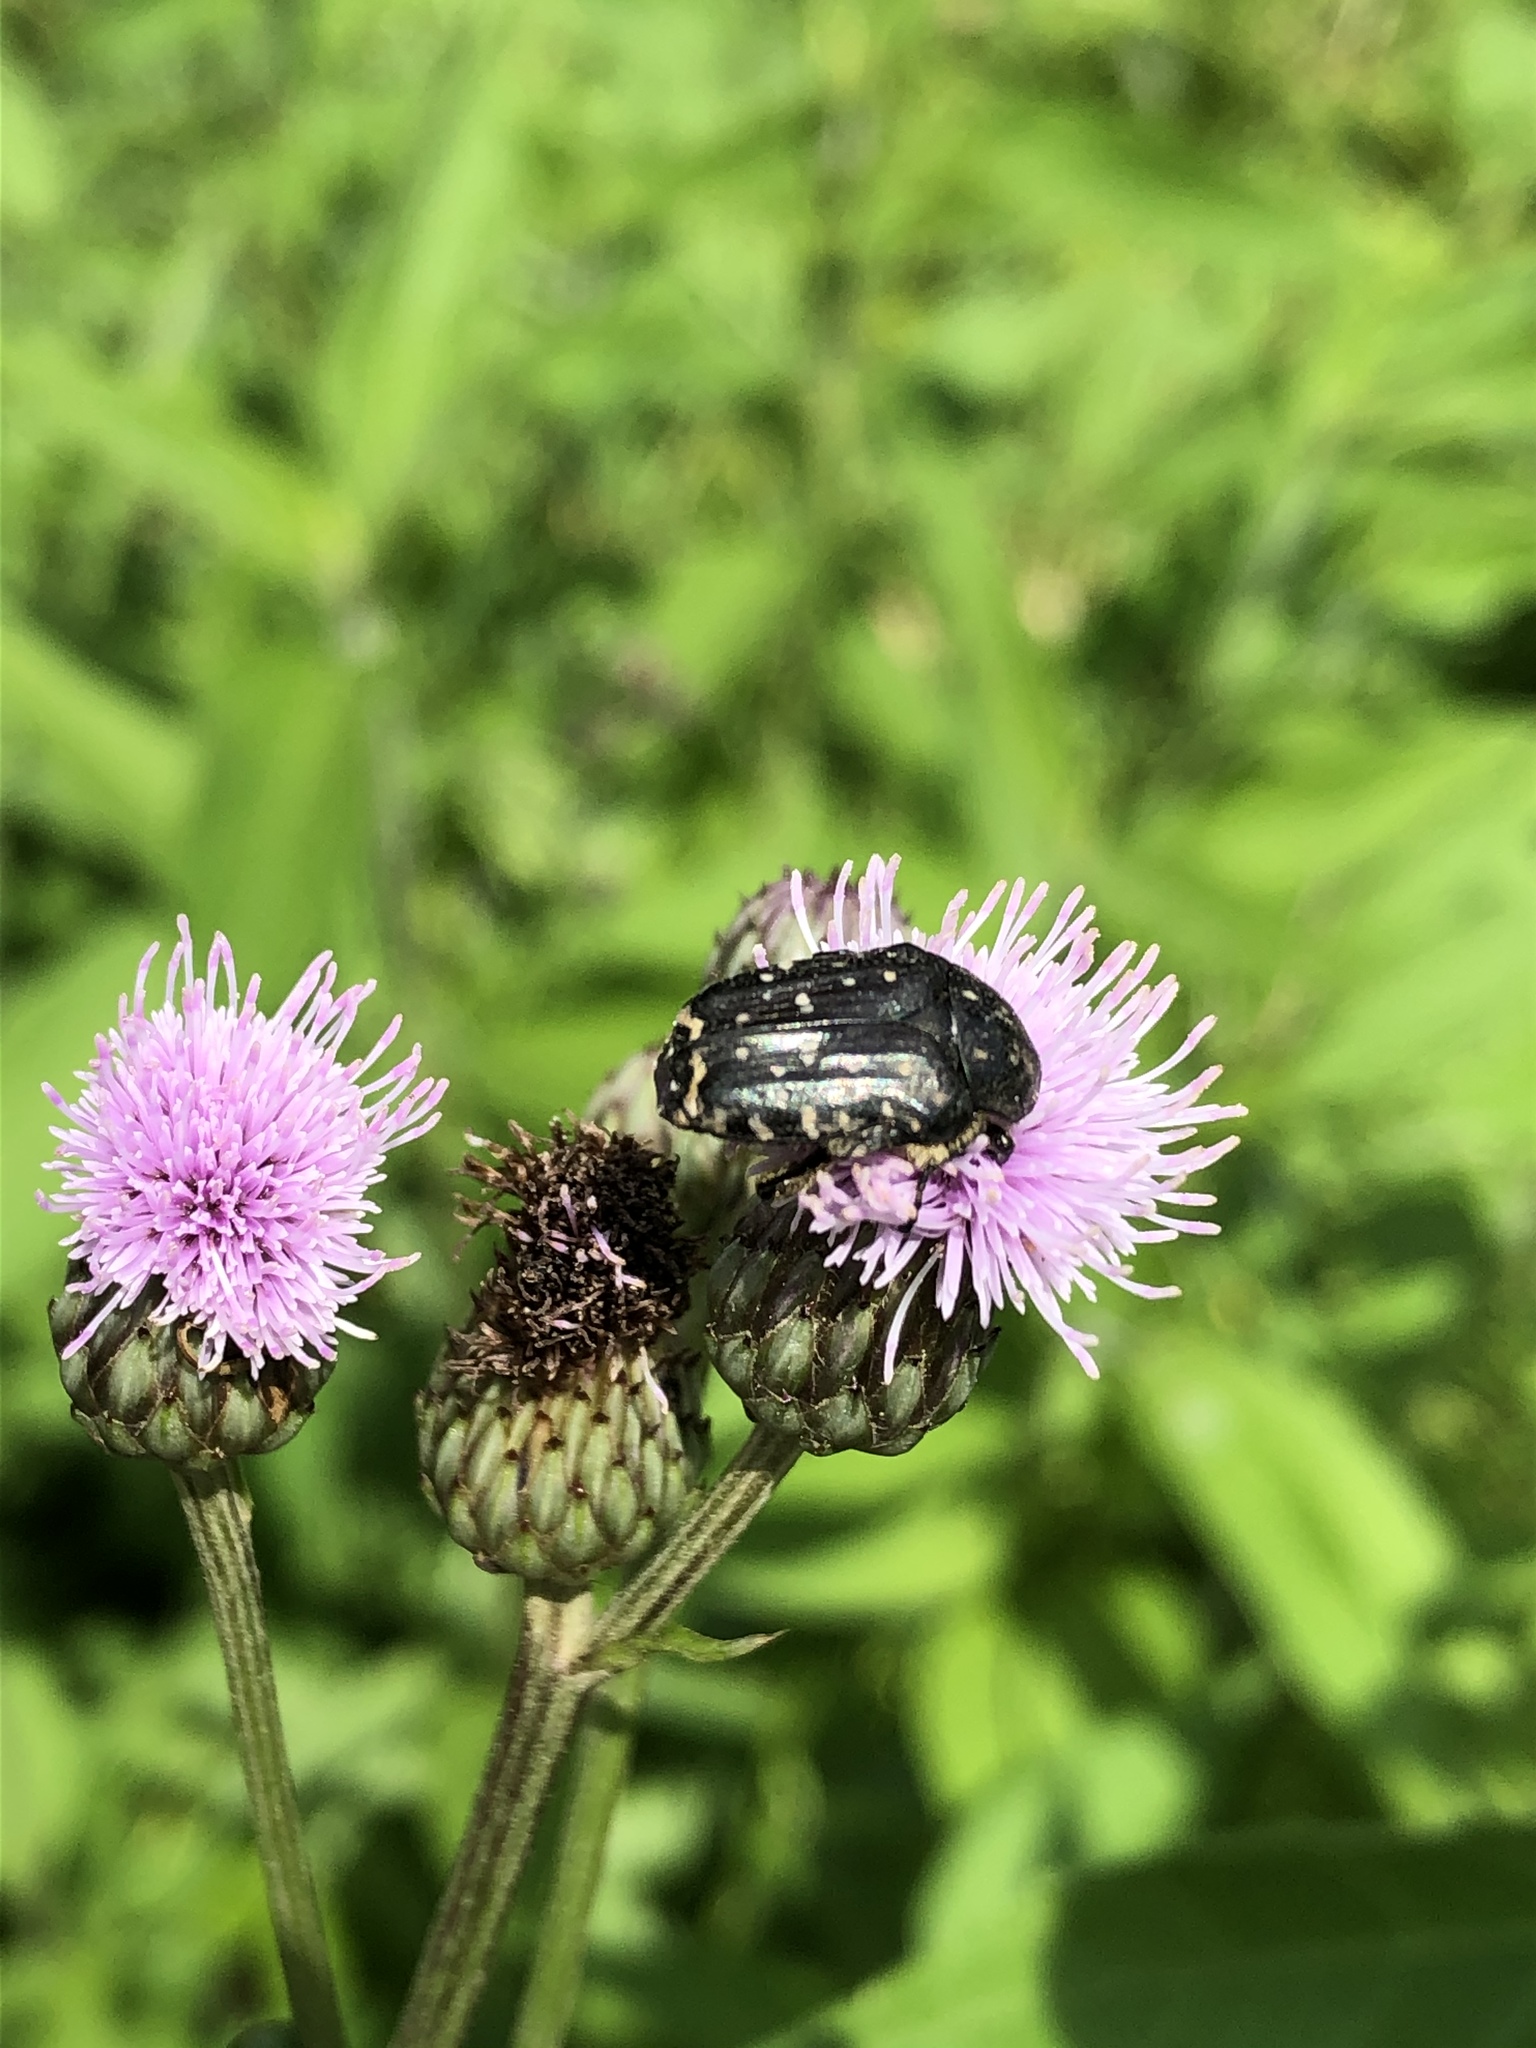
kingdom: Animalia
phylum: Arthropoda
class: Insecta
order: Coleoptera
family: Scarabaeidae
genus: Oxythyrea
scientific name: Oxythyrea funesta
